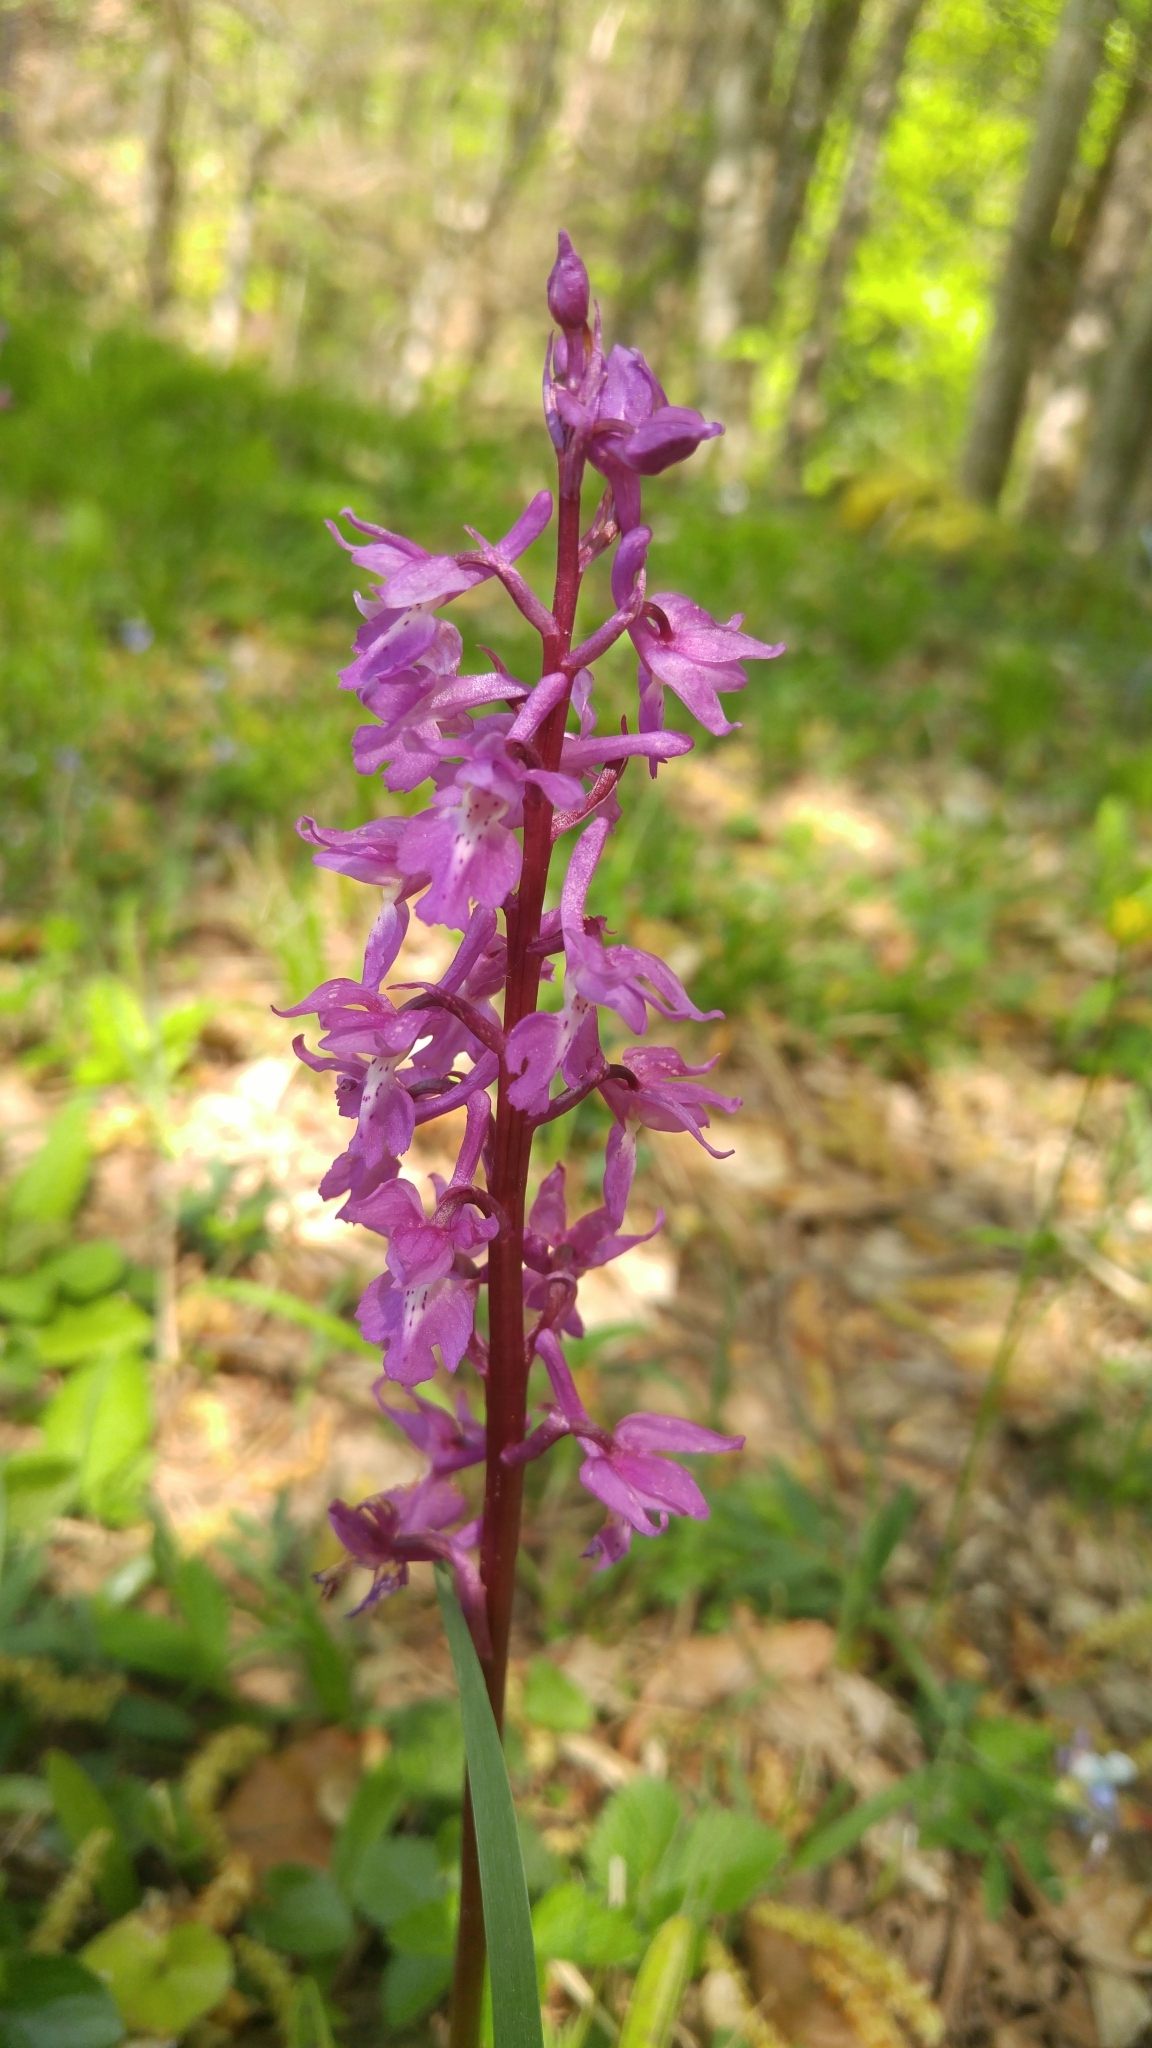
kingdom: Plantae
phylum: Tracheophyta
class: Liliopsida
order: Asparagales
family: Orchidaceae
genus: Orchis
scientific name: Orchis mascula
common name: Early-purple orchid
